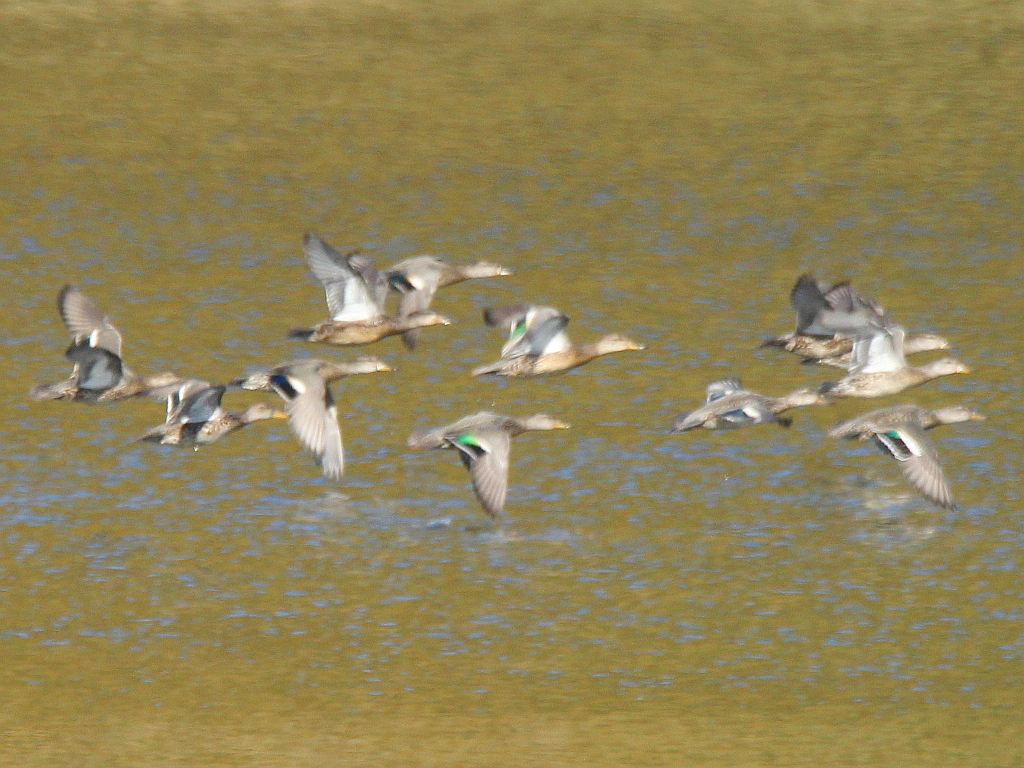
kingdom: Animalia
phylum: Chordata
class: Aves
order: Anseriformes
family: Anatidae
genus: Anas
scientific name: Anas crecca
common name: Eurasian teal
